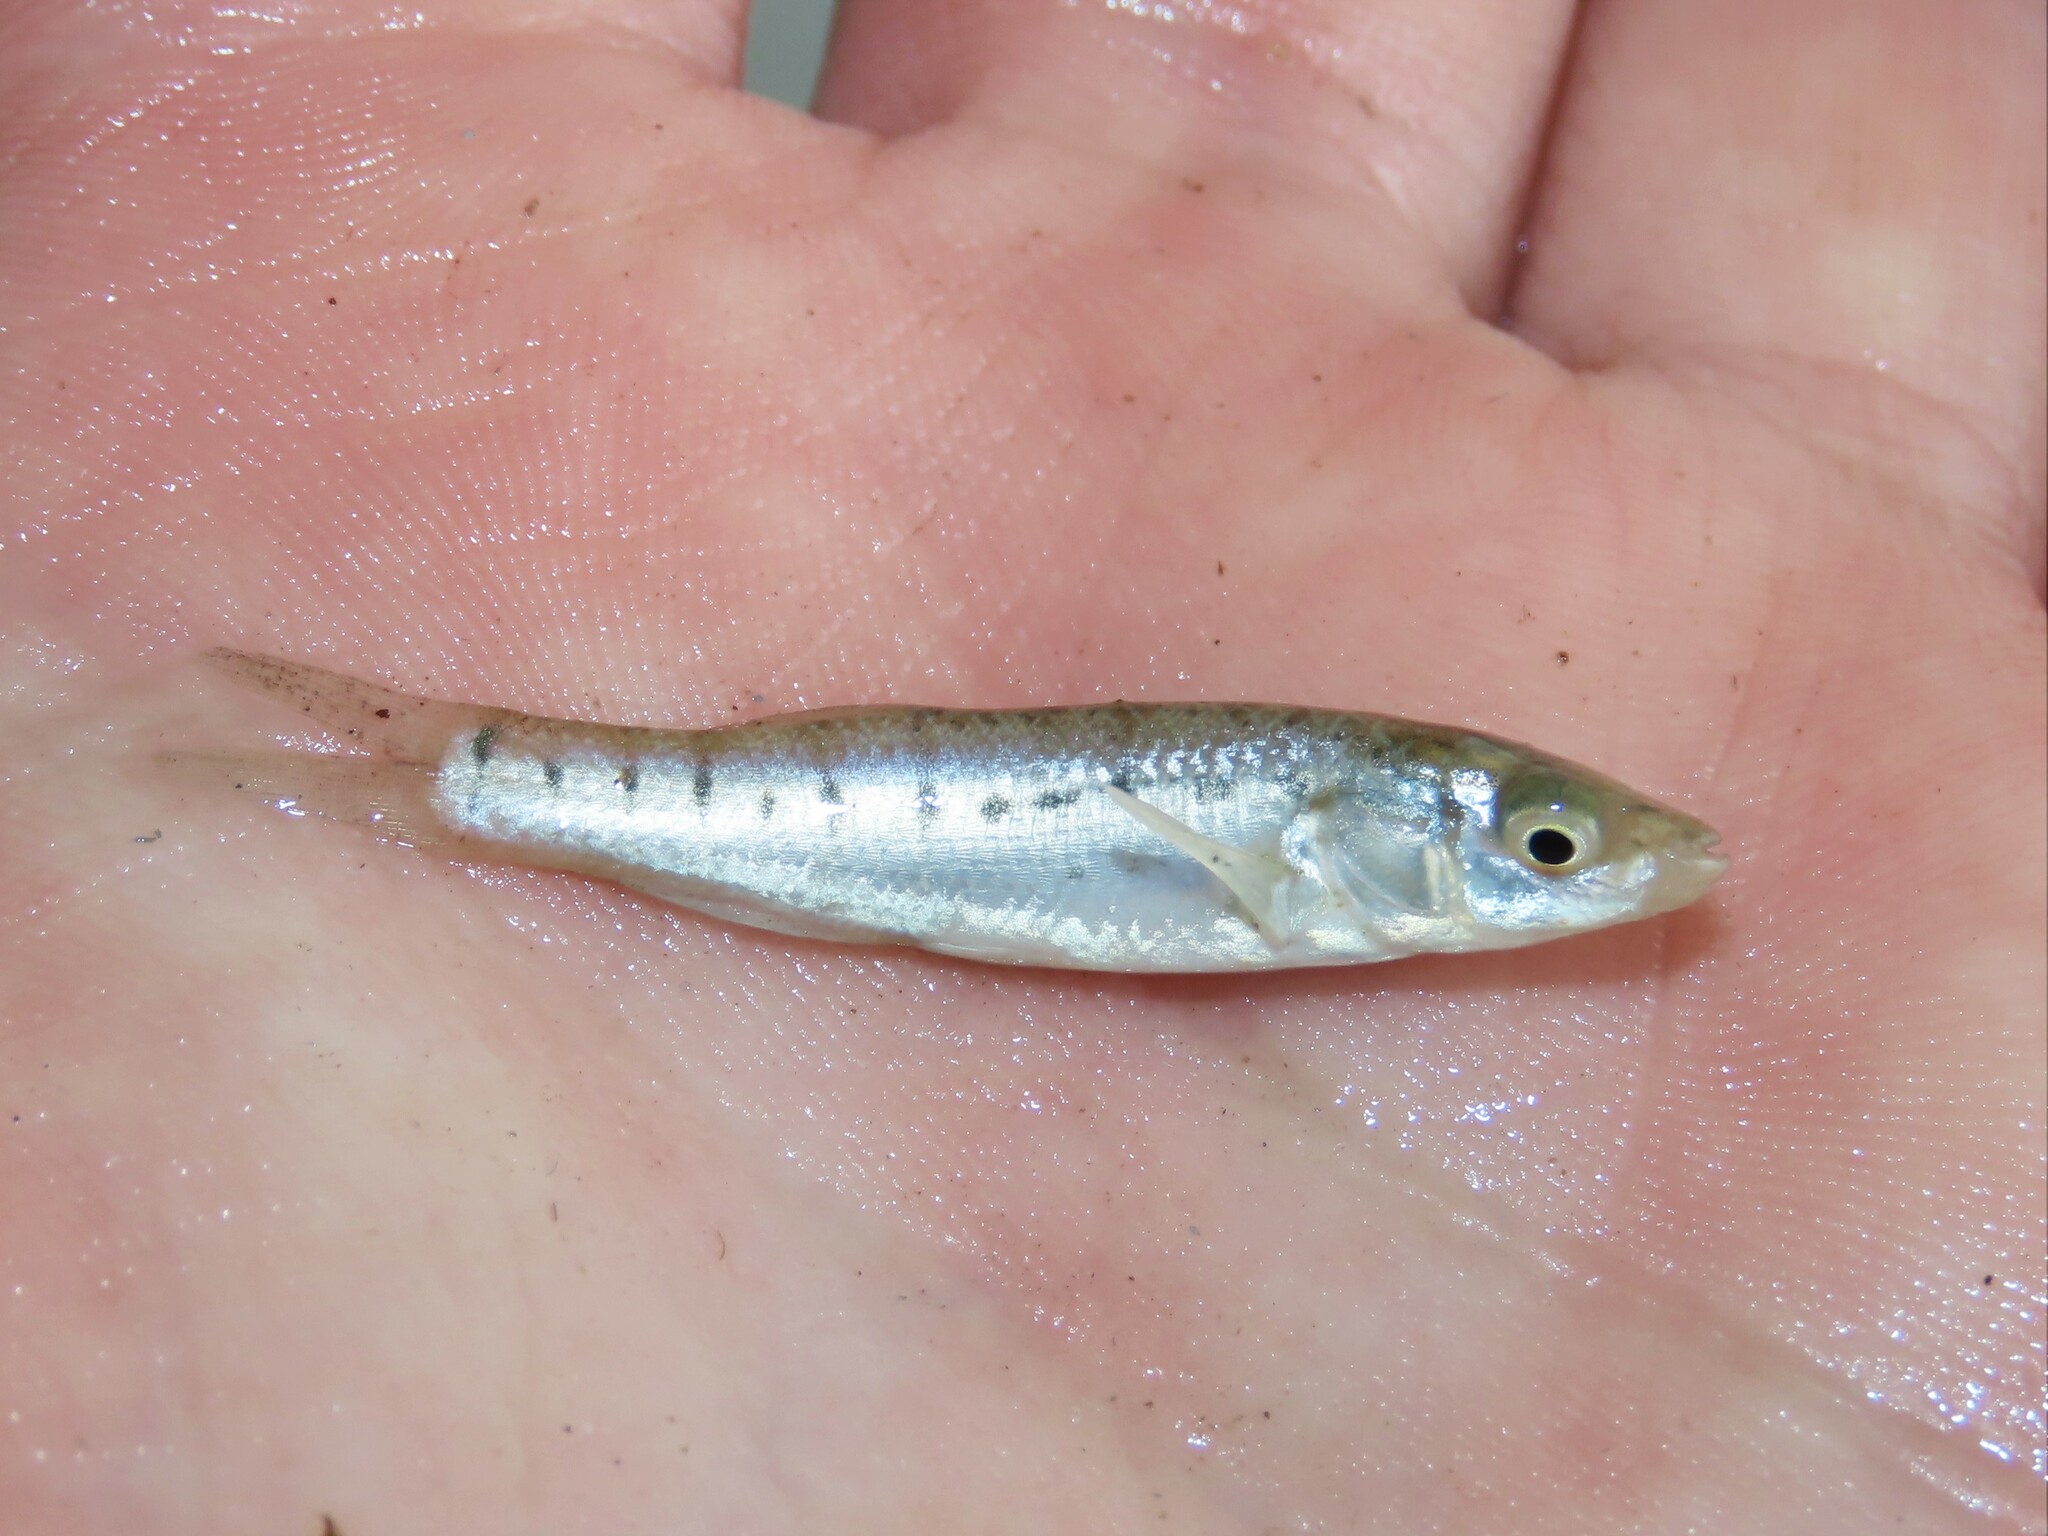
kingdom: Animalia
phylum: Chordata
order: Cyprinodontiformes
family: Fundulidae
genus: Fundulus
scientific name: Fundulus majalis
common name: Striped killifish
